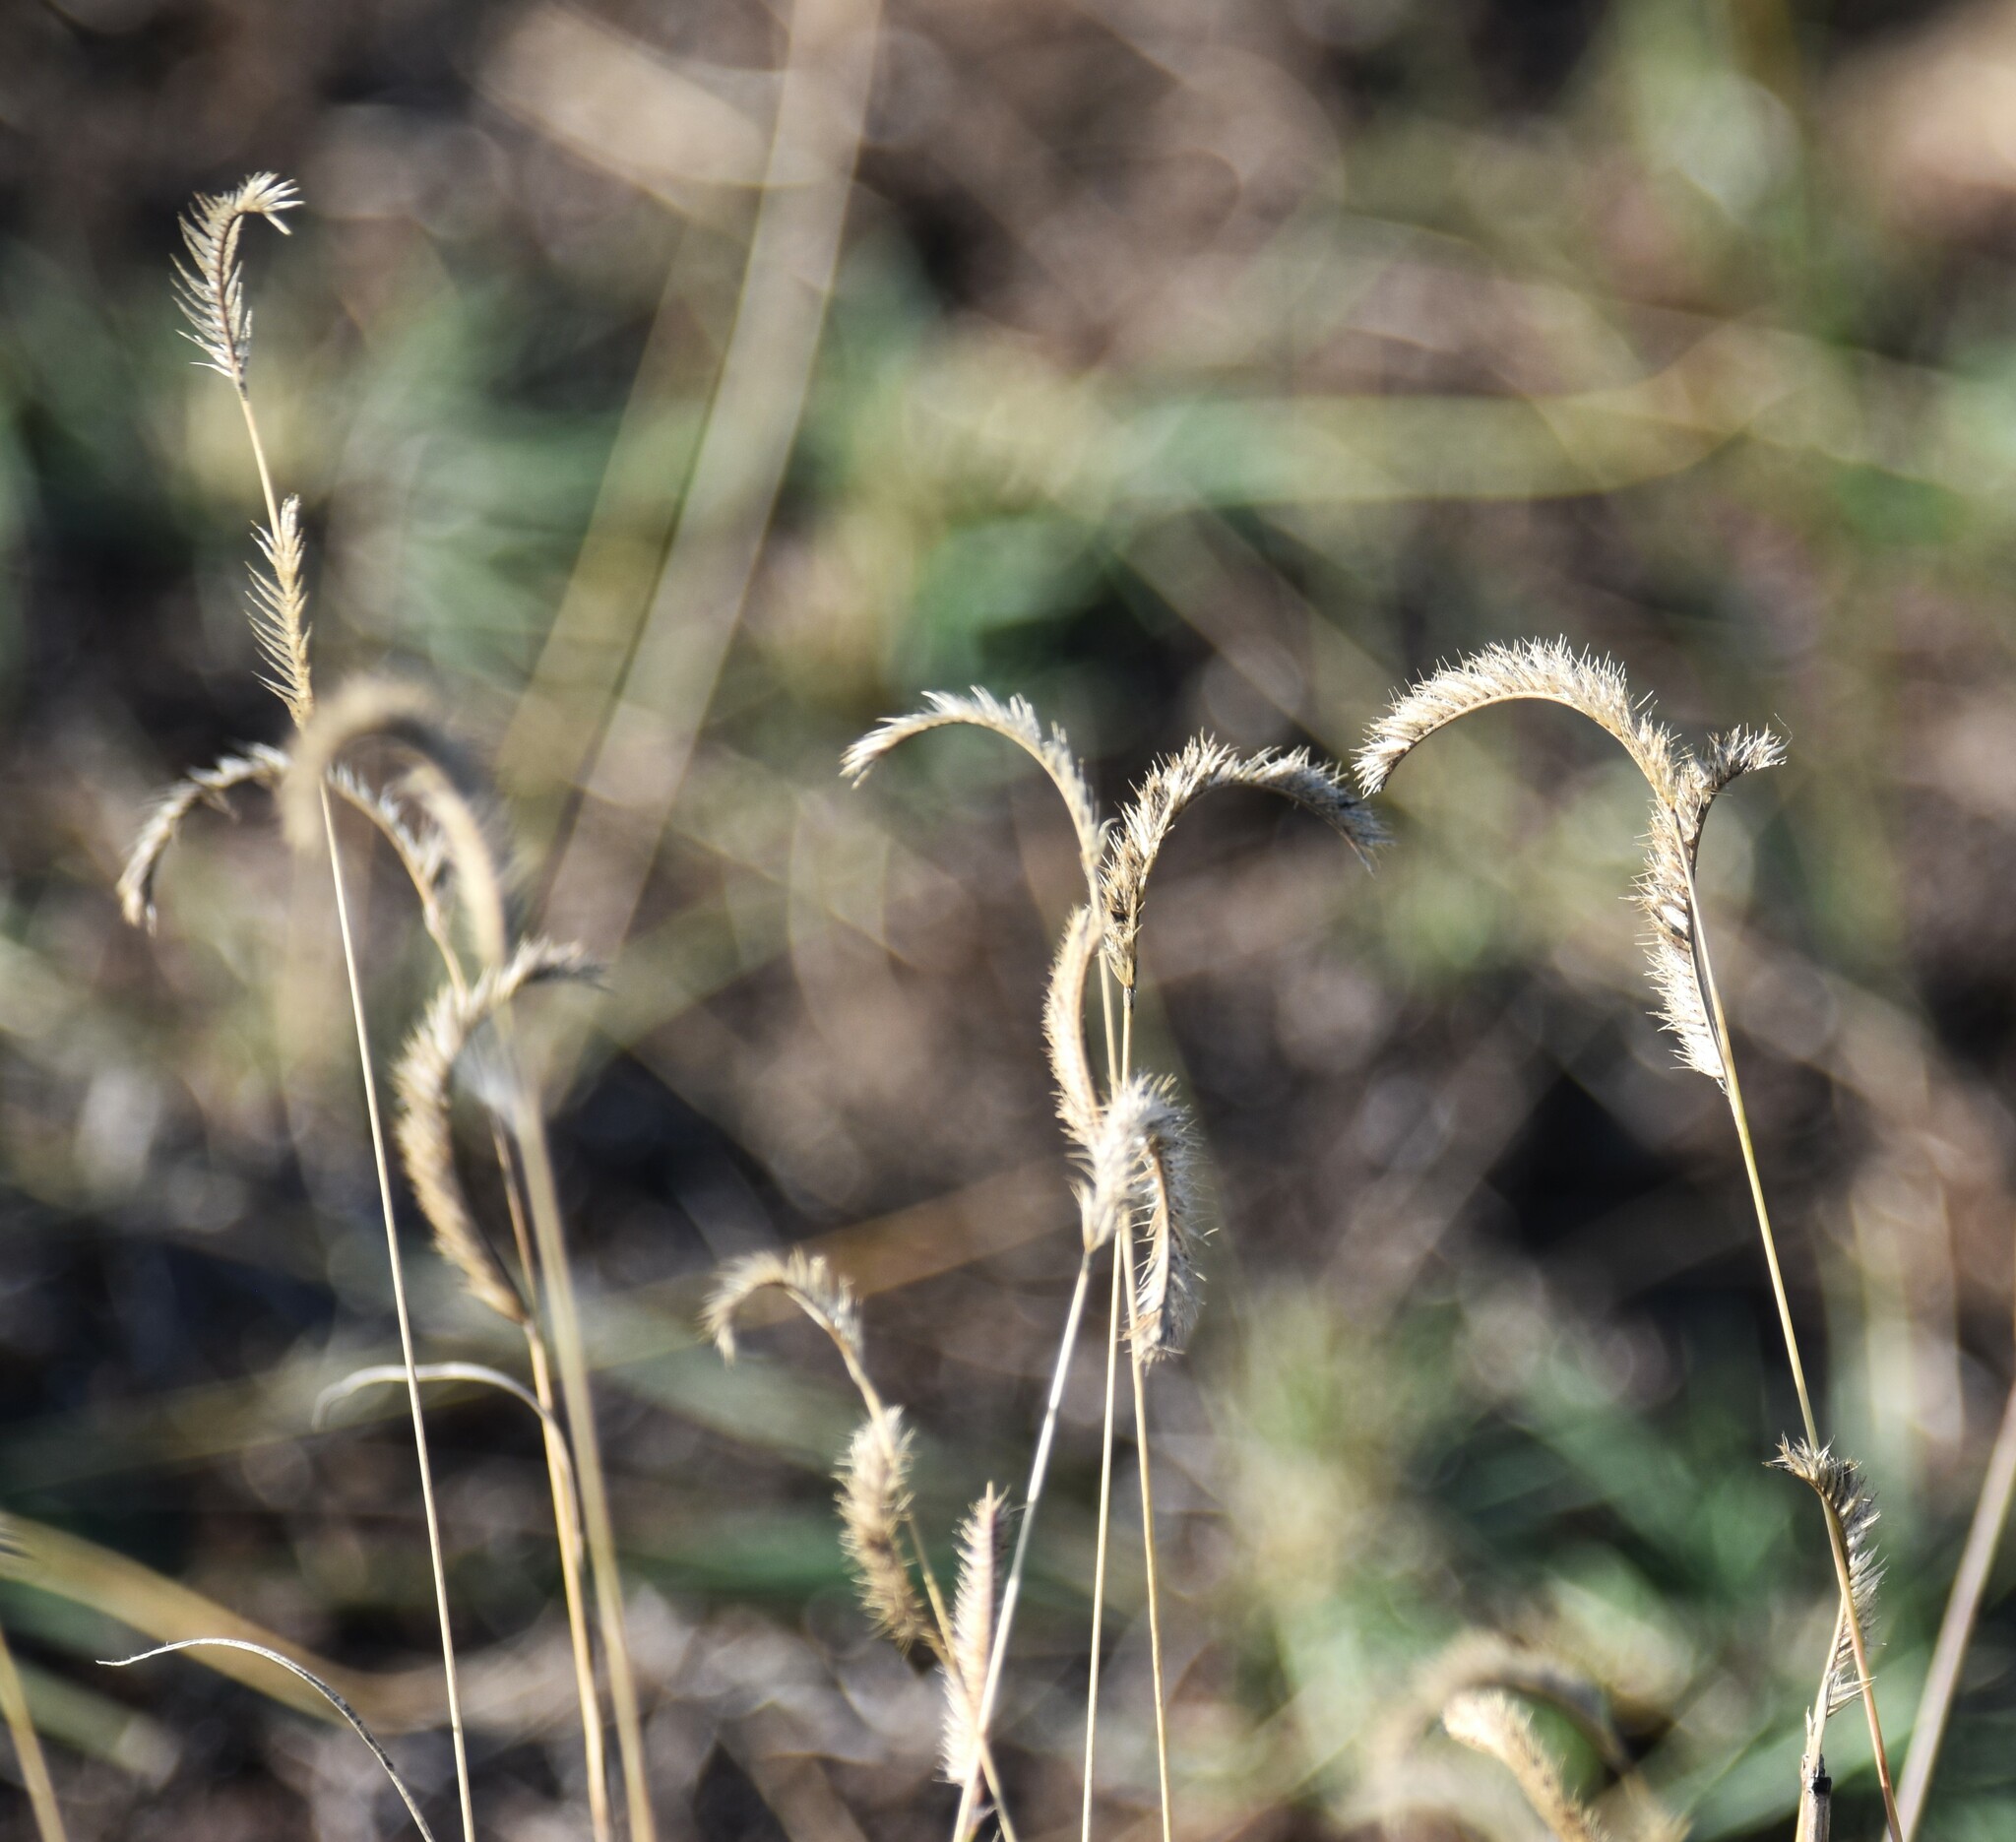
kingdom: Plantae
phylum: Tracheophyta
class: Liliopsida
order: Poales
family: Poaceae
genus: Bouteloua
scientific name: Bouteloua gracilis
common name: Blue grama
